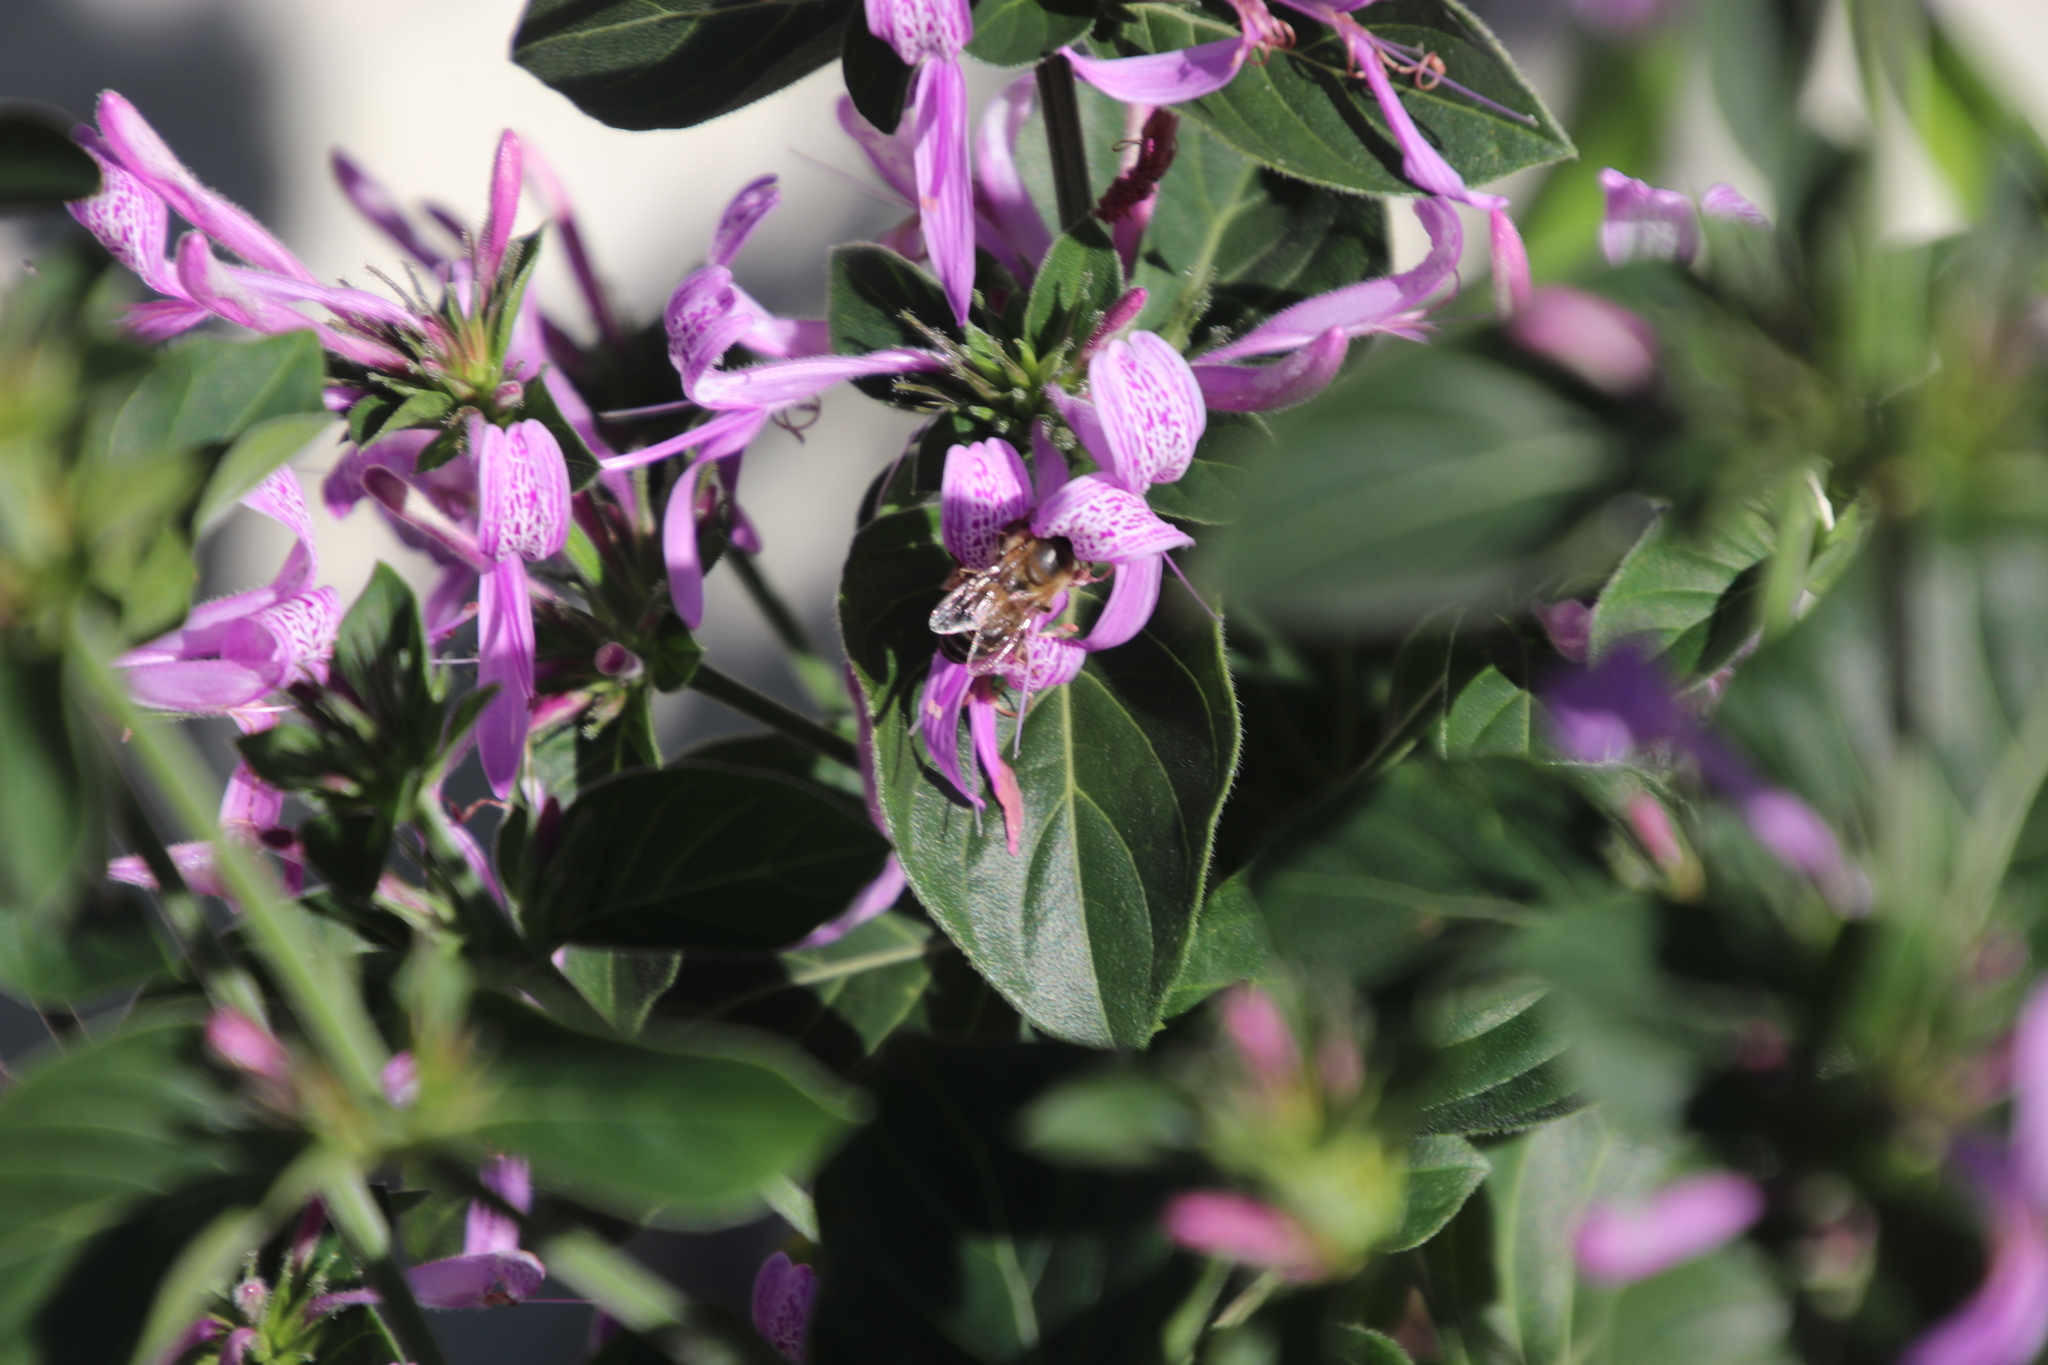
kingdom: Animalia
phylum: Arthropoda
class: Insecta
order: Hymenoptera
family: Apidae
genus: Apis
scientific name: Apis mellifera
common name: Honey bee
